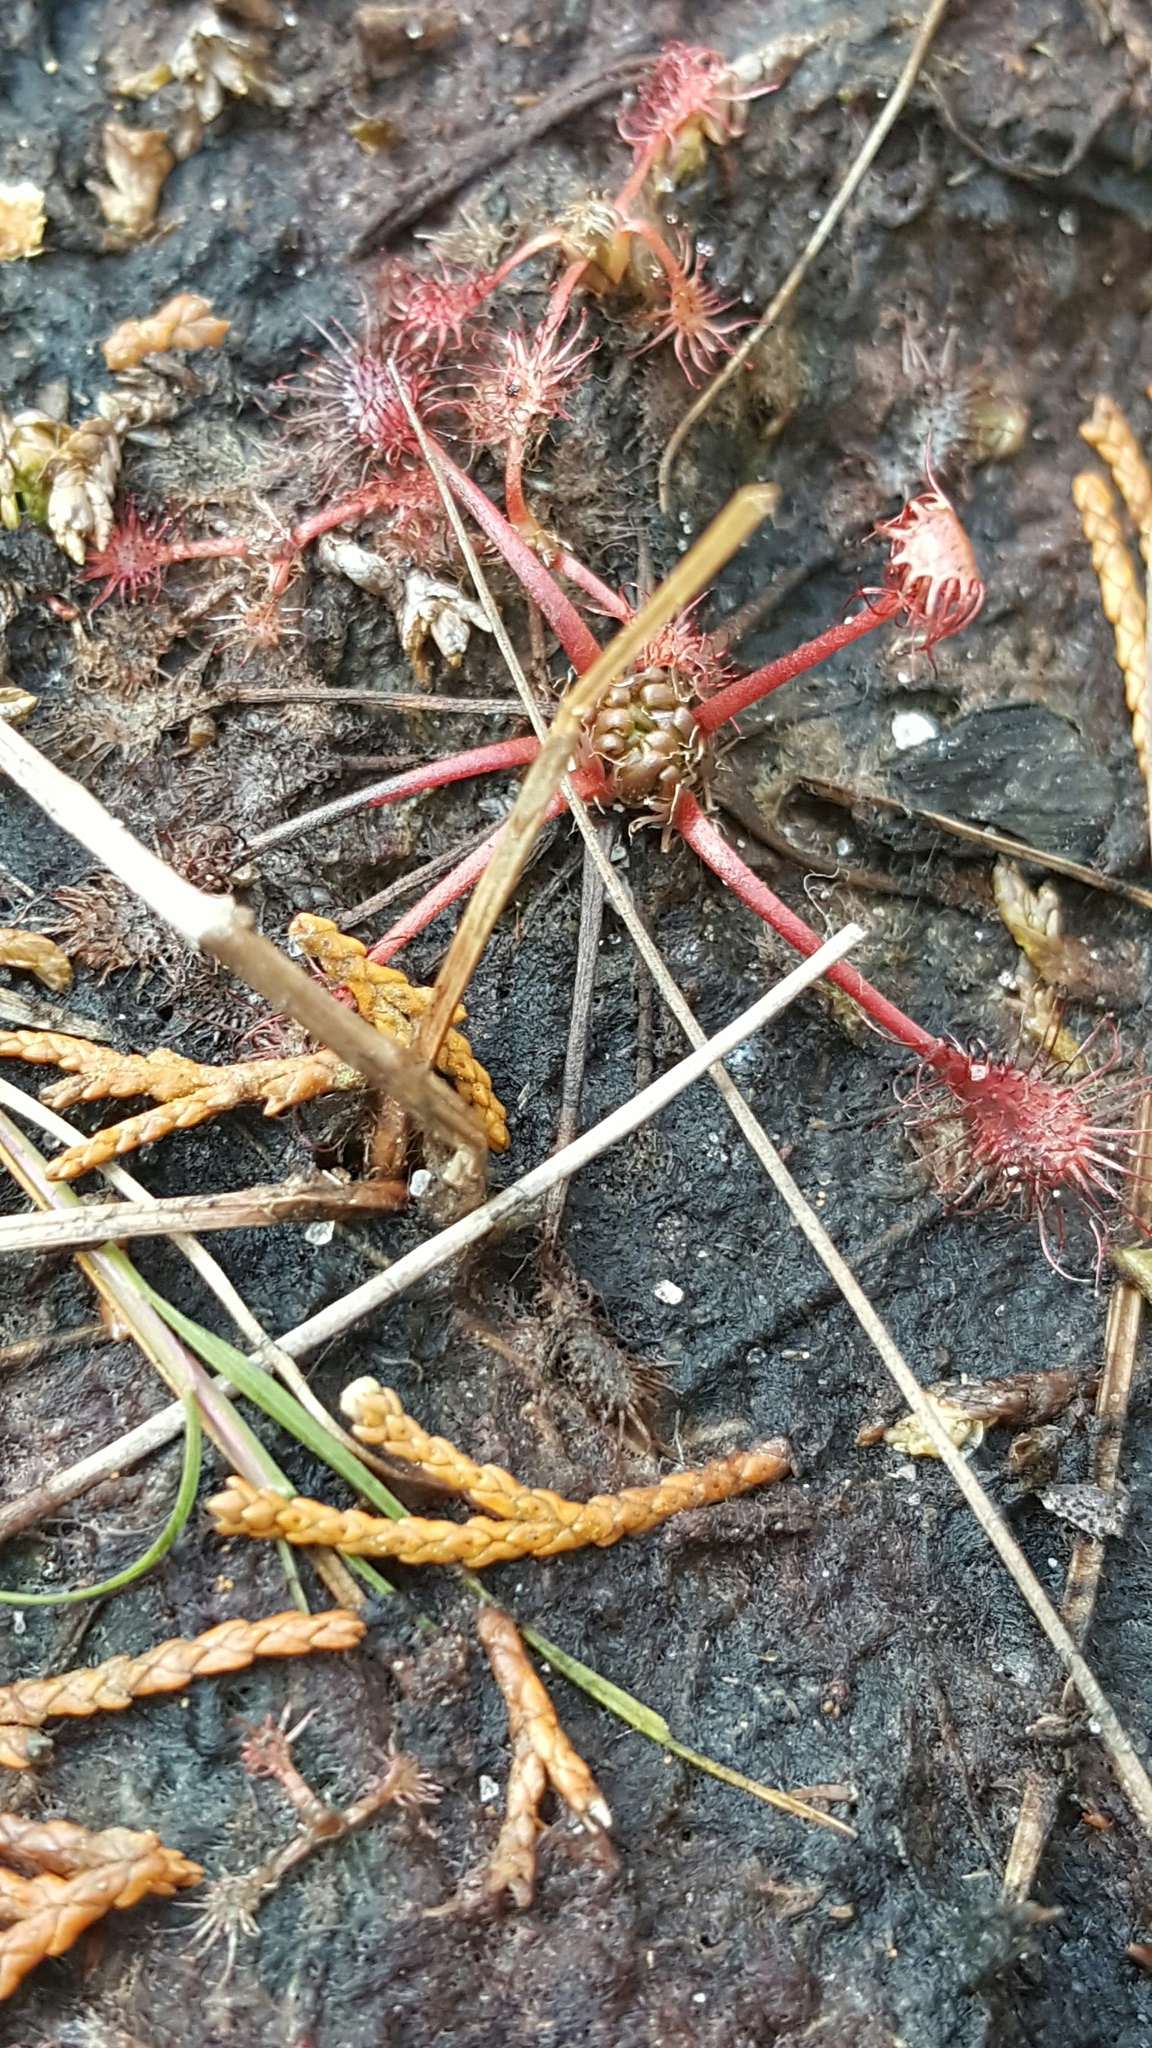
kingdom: Plantae
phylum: Tracheophyta
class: Magnoliopsida
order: Caryophyllales
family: Droseraceae
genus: Drosera
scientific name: Drosera intermedia
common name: Oblong-leaved sundew
